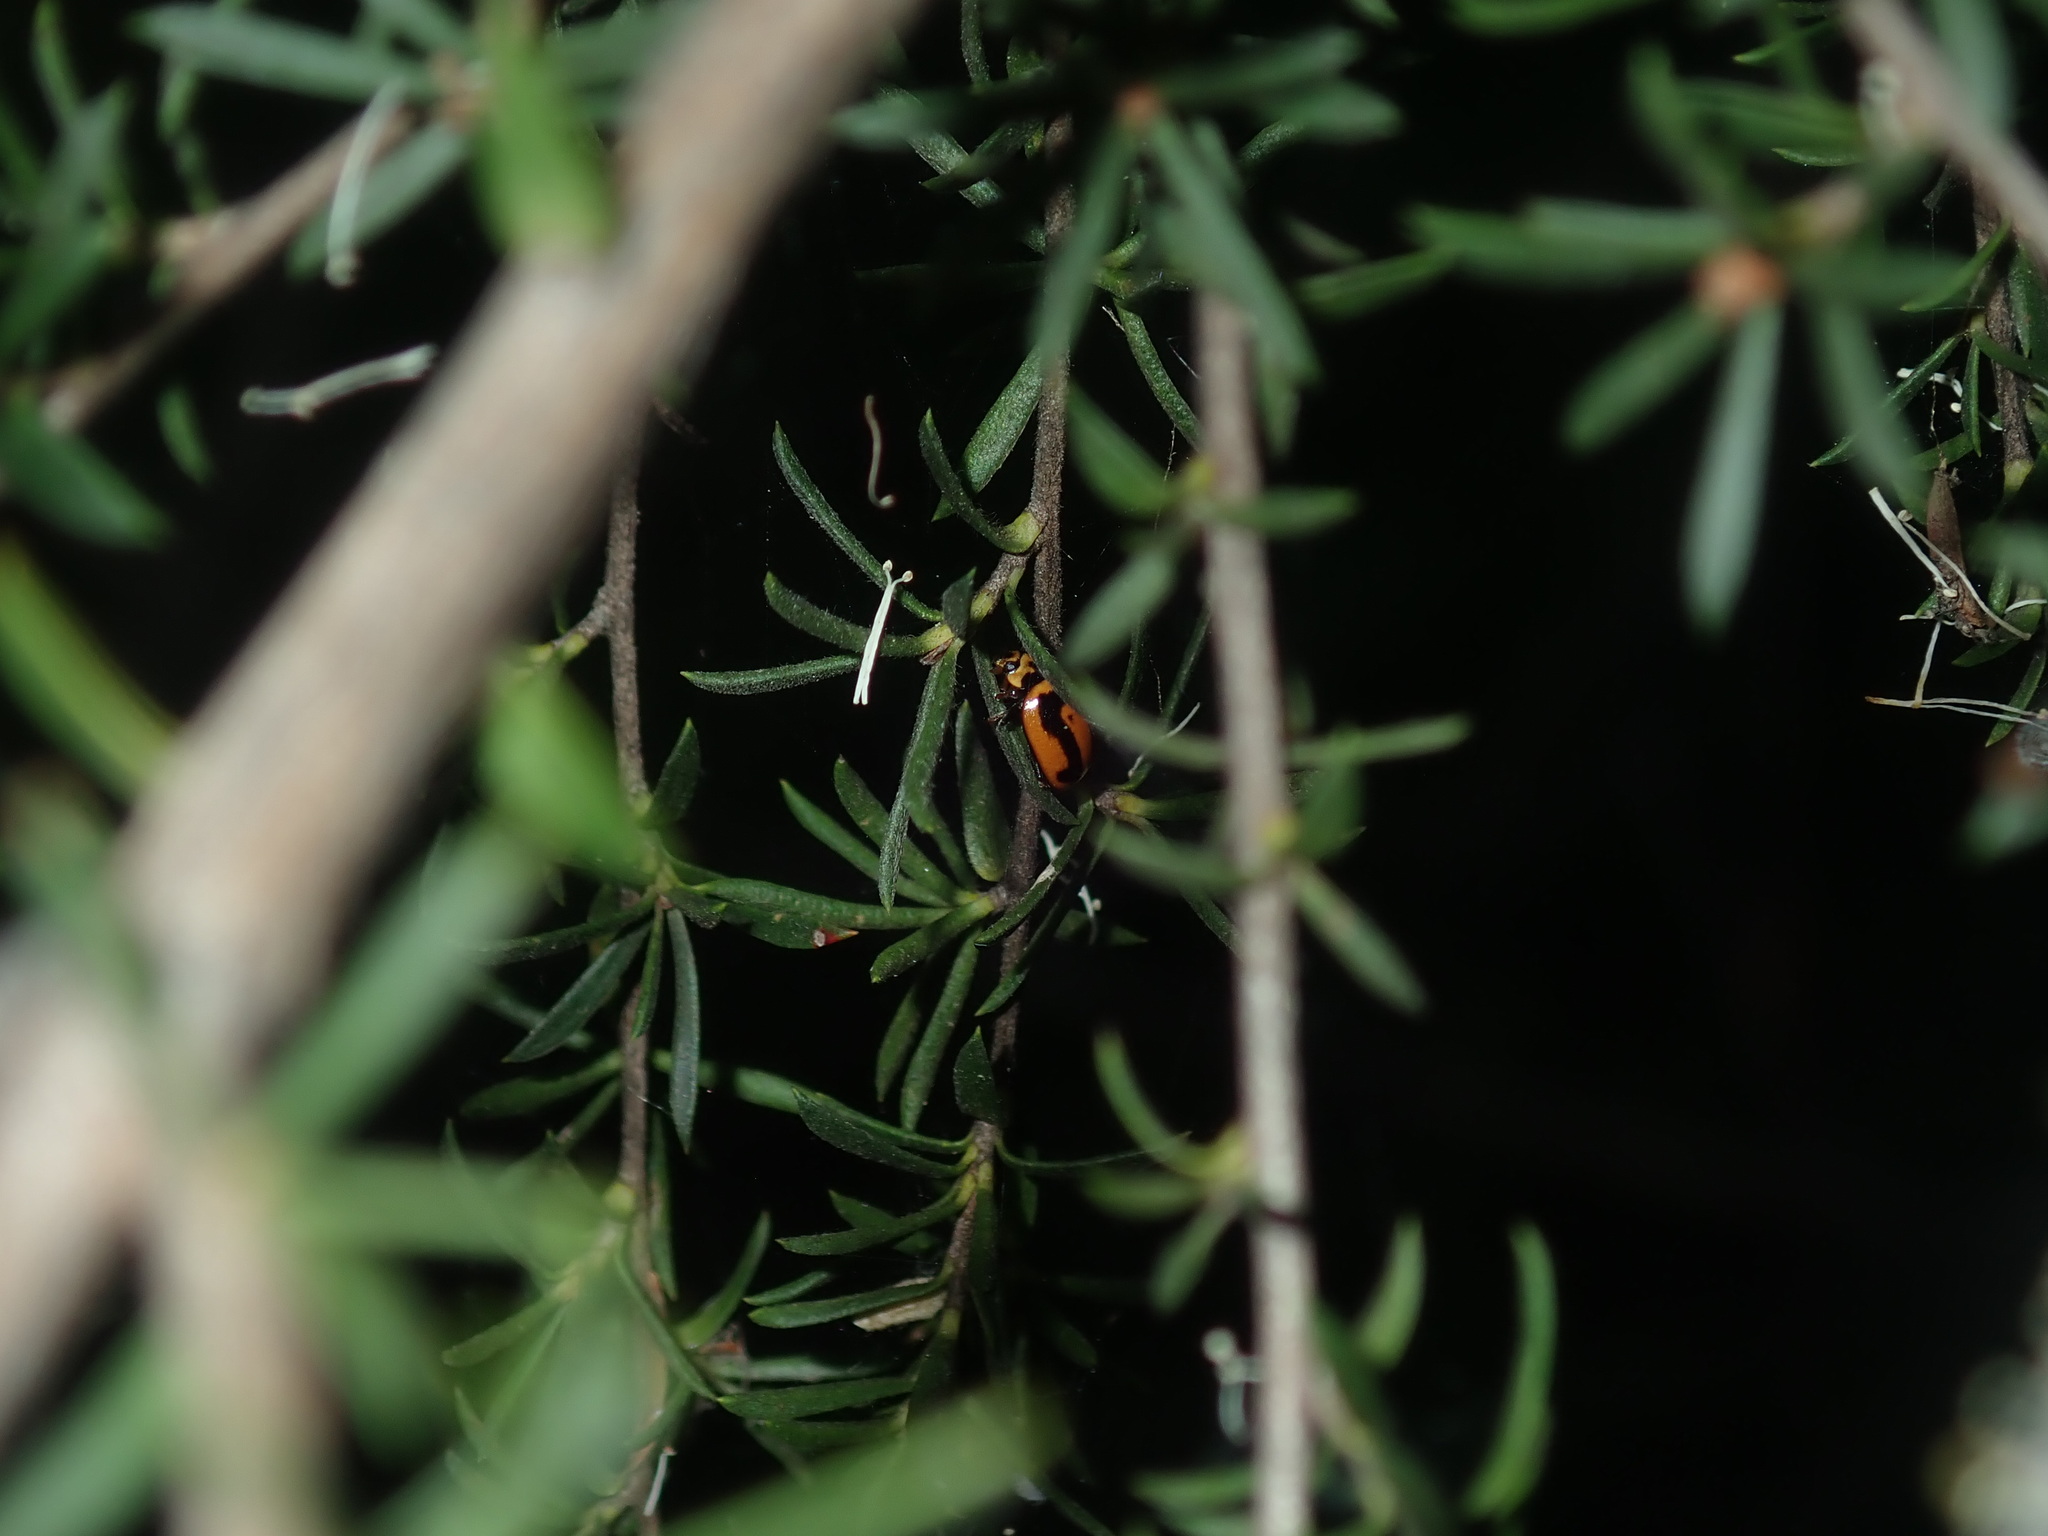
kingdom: Animalia
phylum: Arthropoda
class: Insecta
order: Coleoptera
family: Coccinellidae
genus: Micraspis
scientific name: Micraspis frenata
